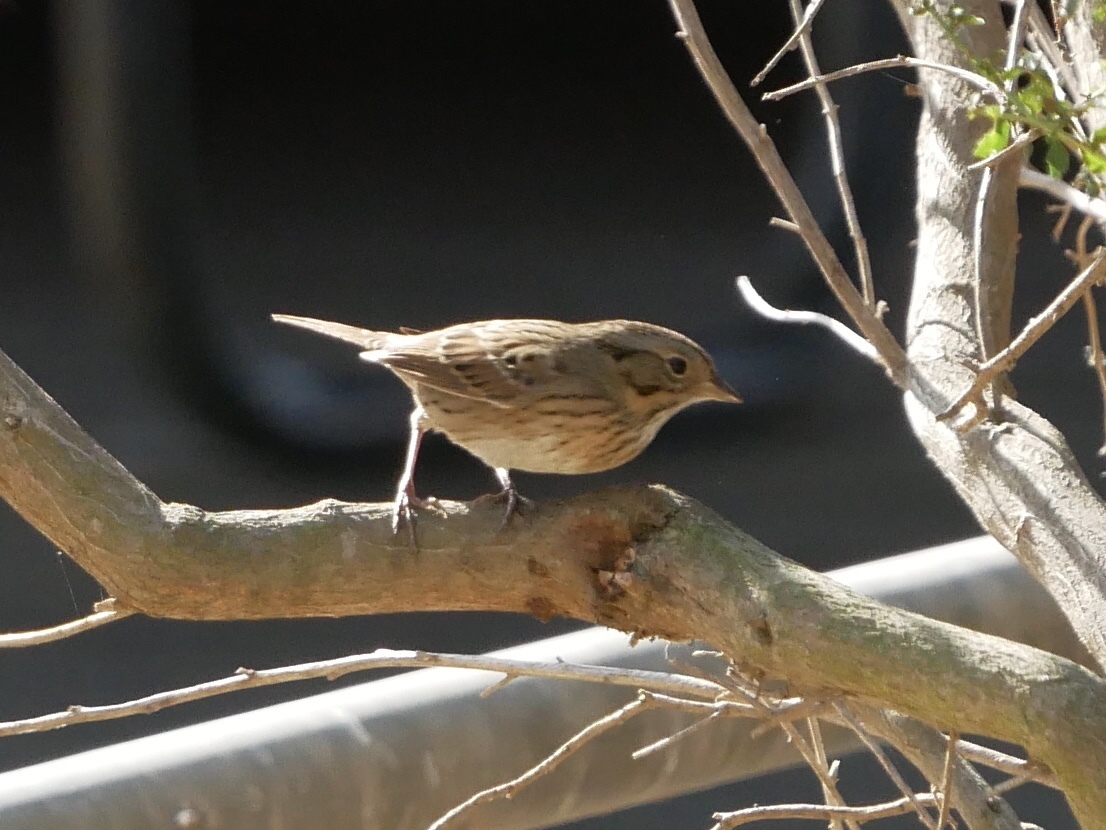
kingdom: Animalia
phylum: Chordata
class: Aves
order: Passeriformes
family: Passerellidae
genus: Melospiza
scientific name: Melospiza lincolnii
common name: Lincoln's sparrow
